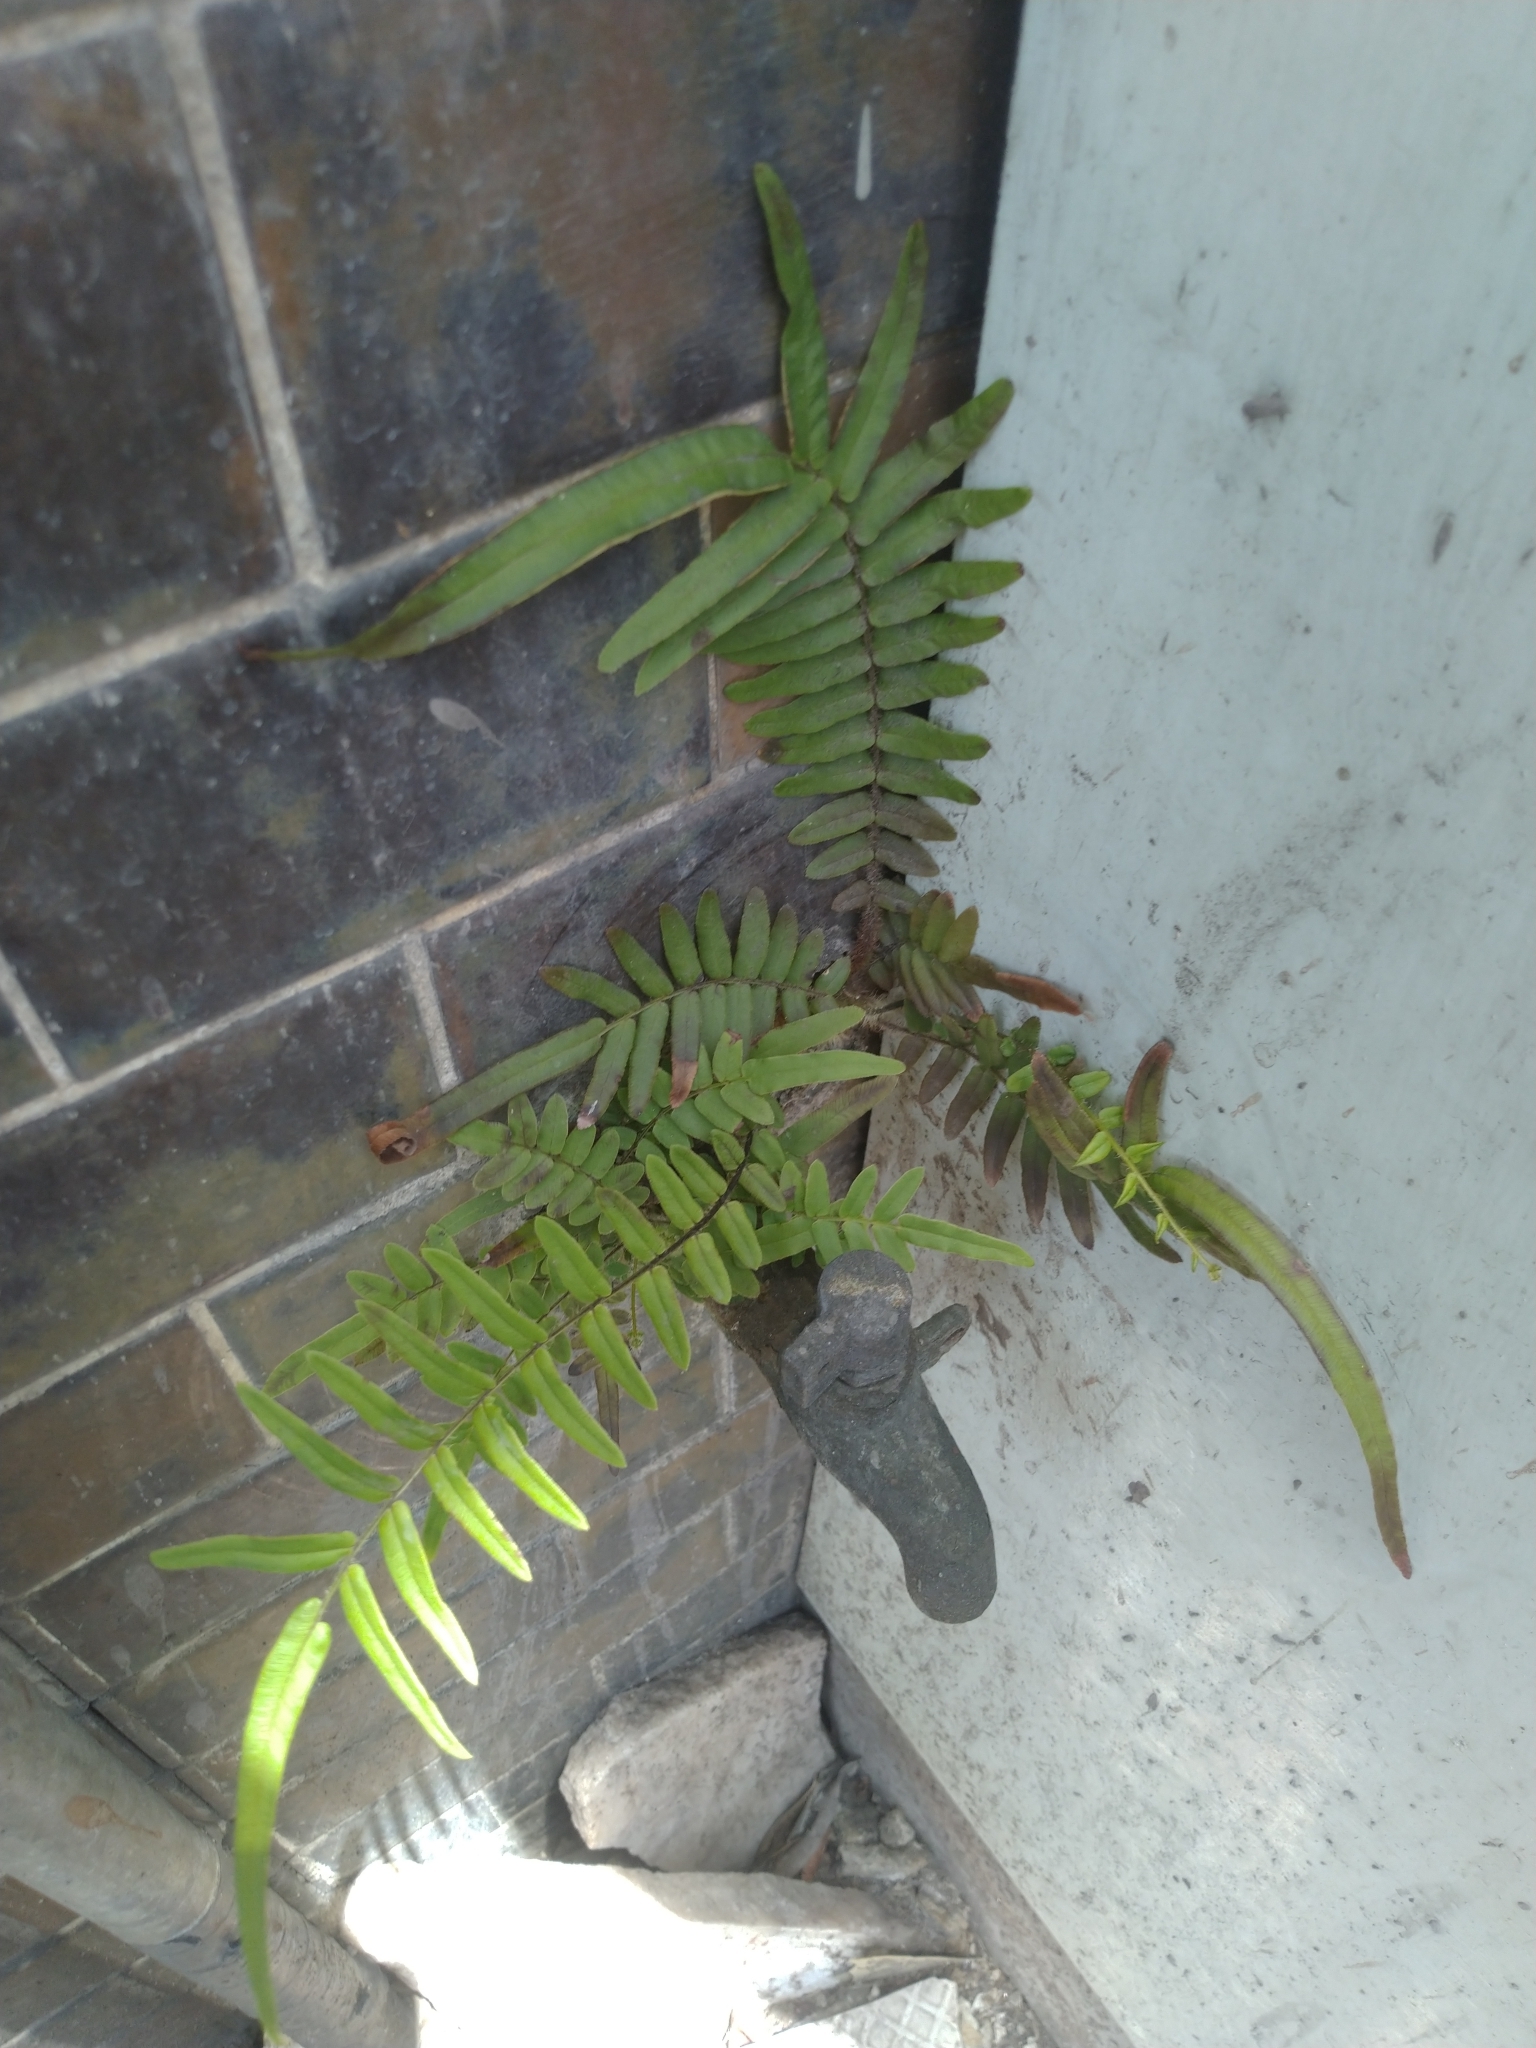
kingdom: Plantae
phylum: Tracheophyta
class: Polypodiopsida
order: Polypodiales
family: Pteridaceae
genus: Pteris
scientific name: Pteris vittata
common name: Ladder brake
